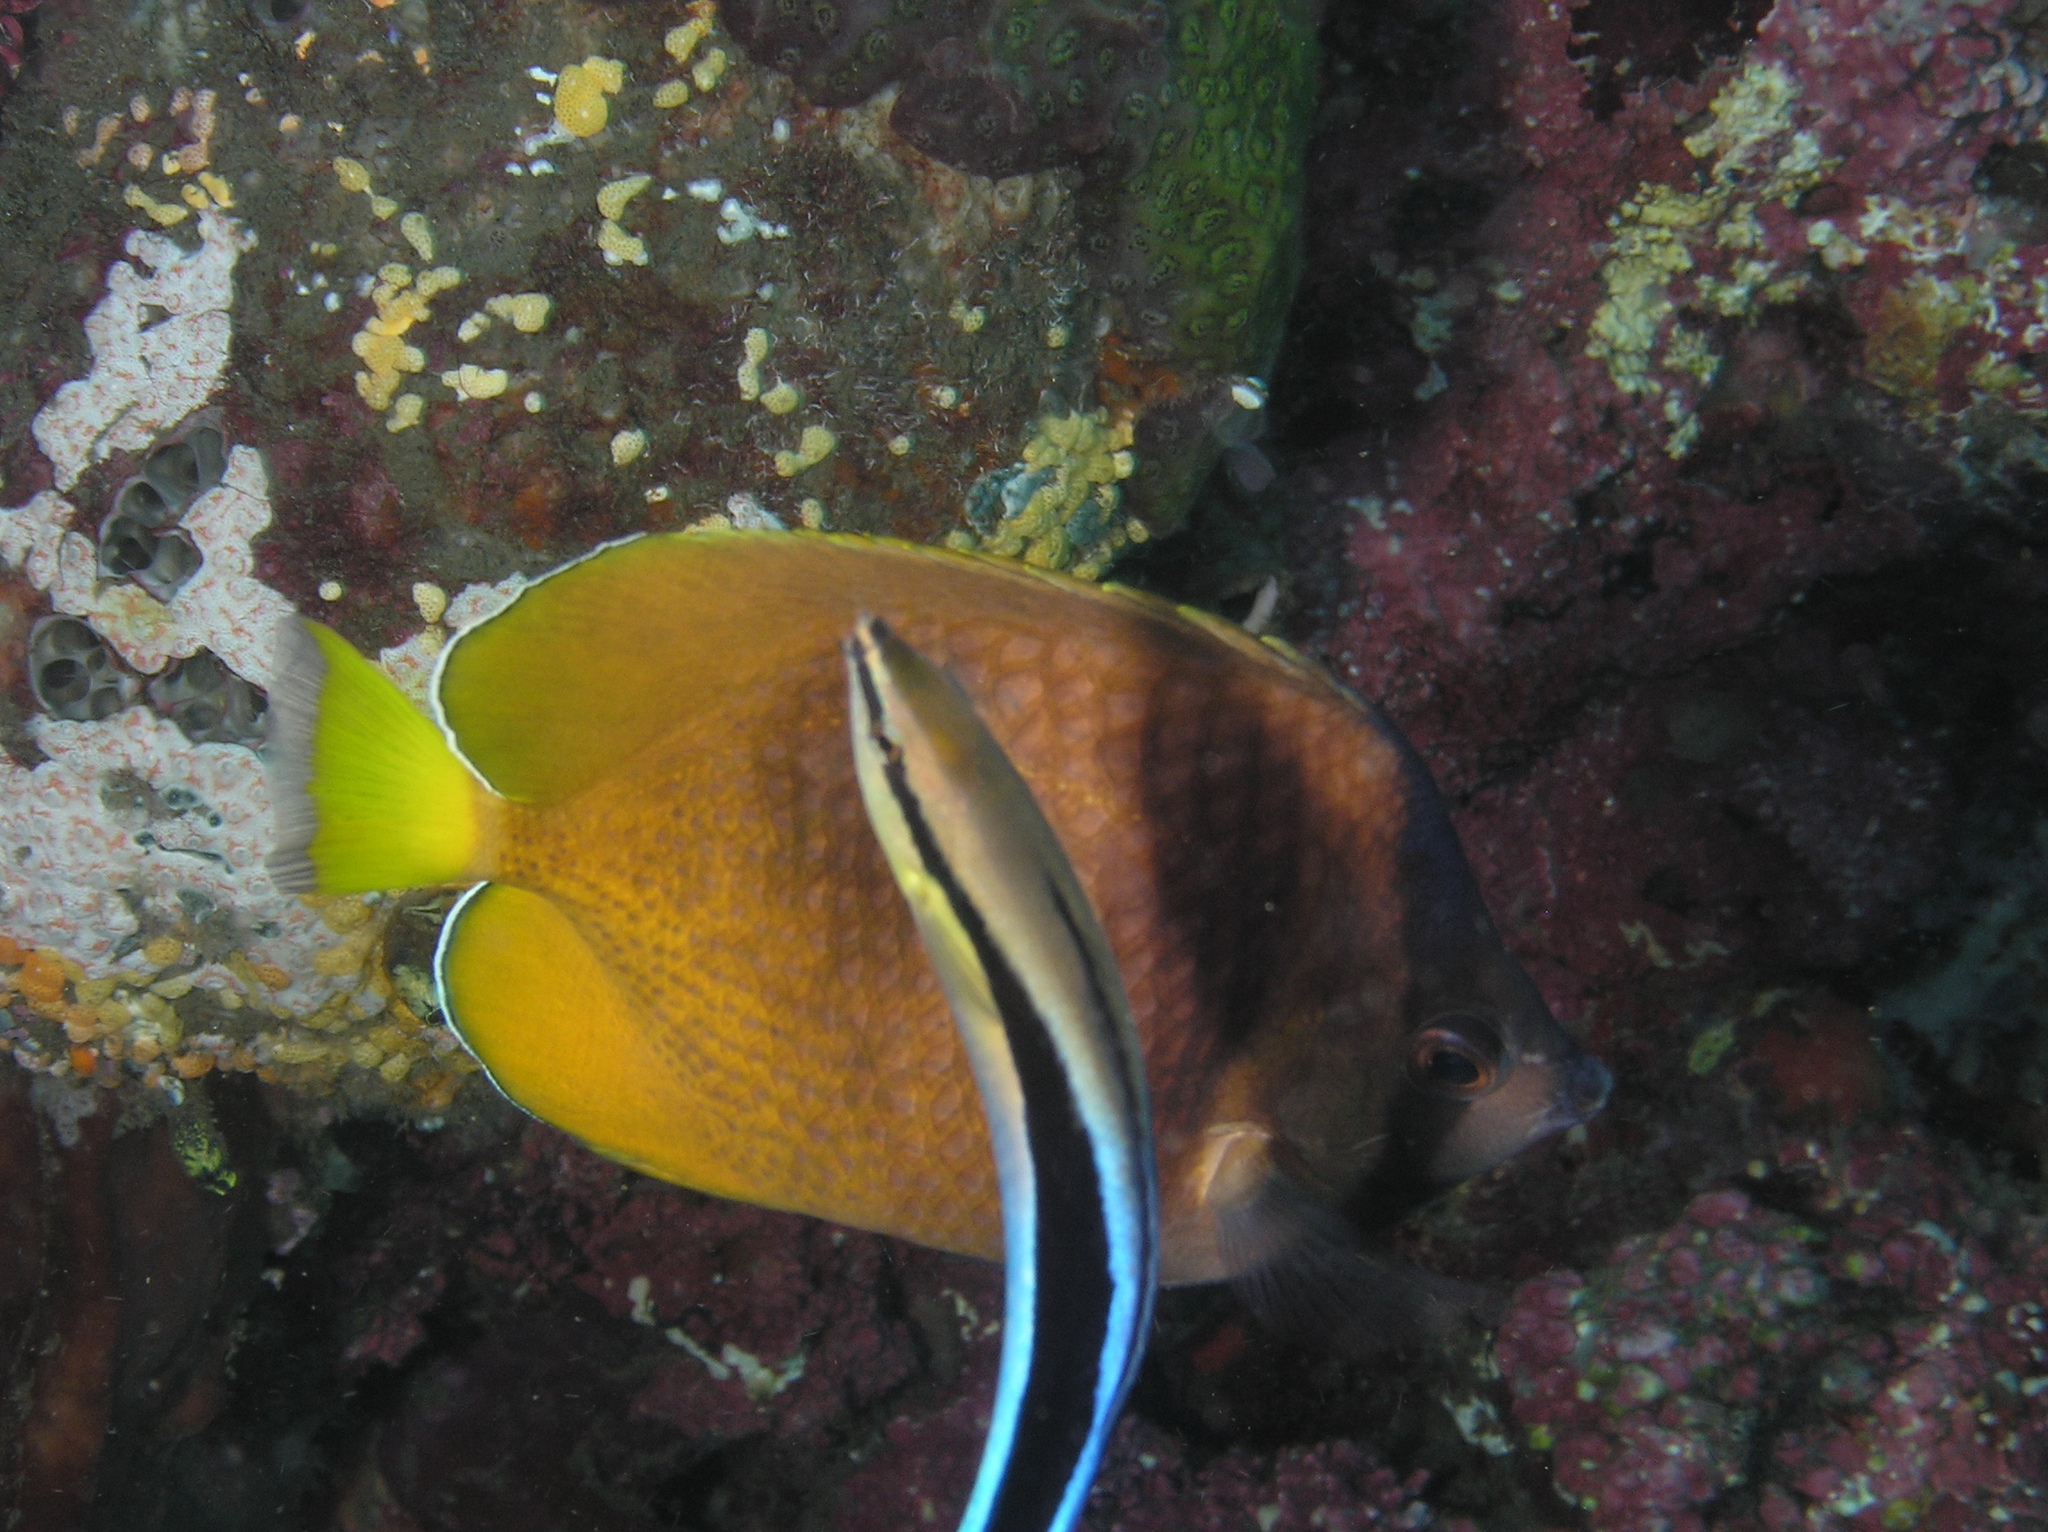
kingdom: Animalia
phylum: Chordata
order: Perciformes
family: Chaetodontidae
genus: Chaetodon
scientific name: Chaetodon kleinii
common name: Klein's butterflyfish
